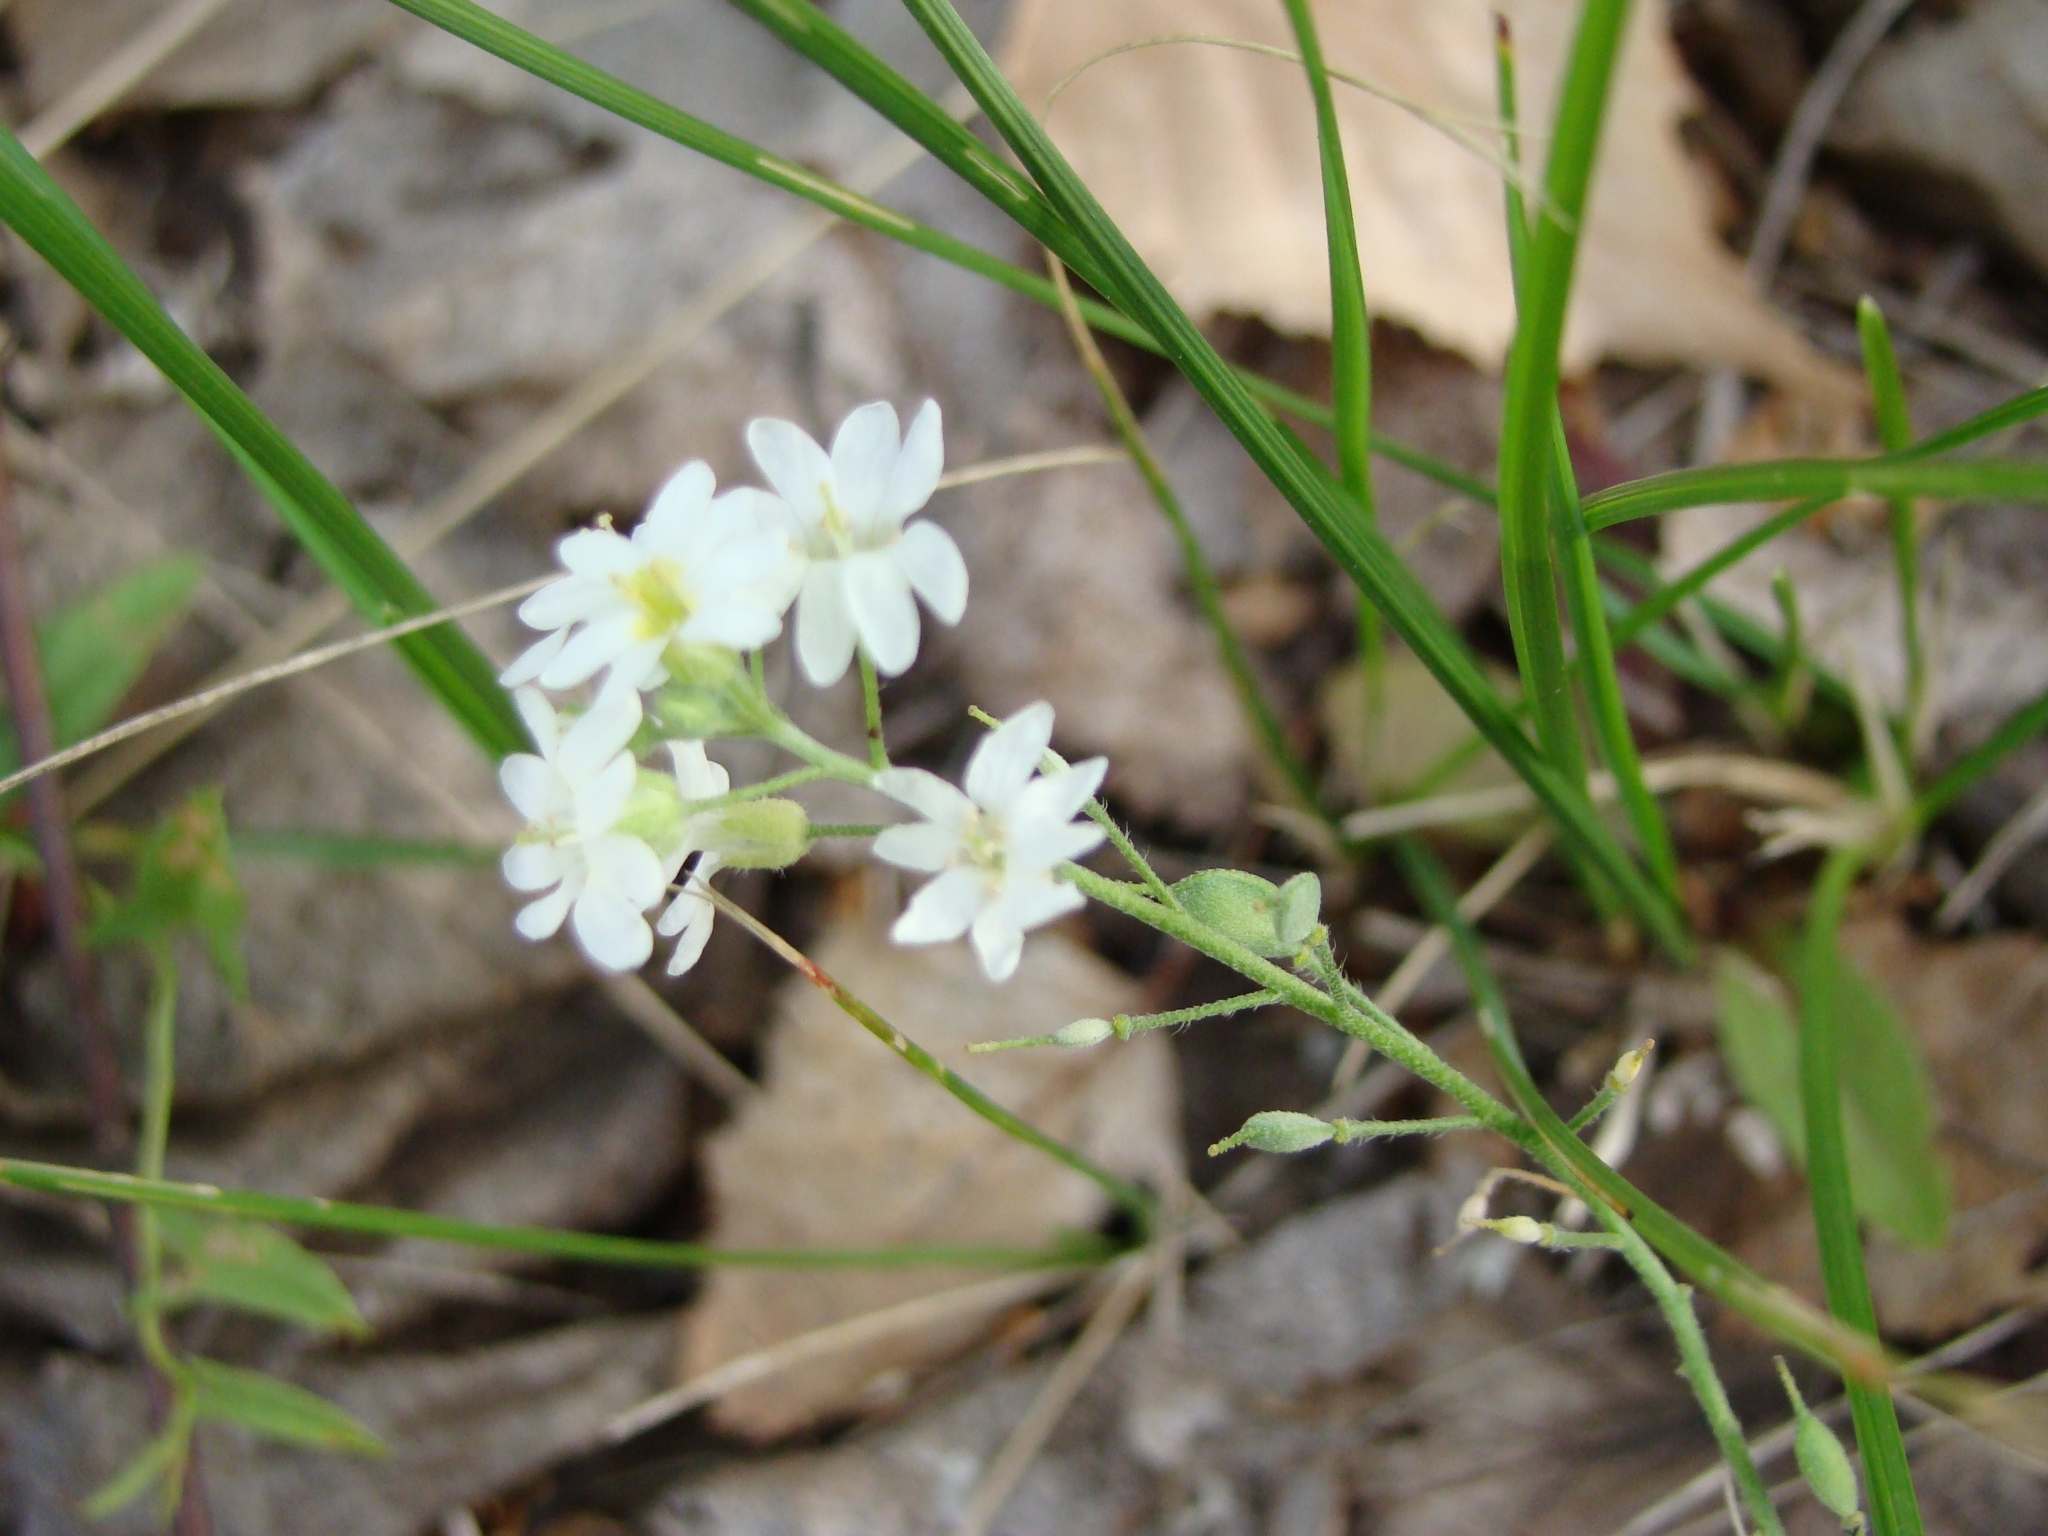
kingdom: Plantae
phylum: Tracheophyta
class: Magnoliopsida
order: Brassicales
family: Brassicaceae
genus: Berteroa
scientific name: Berteroa incana
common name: Hoary alison
